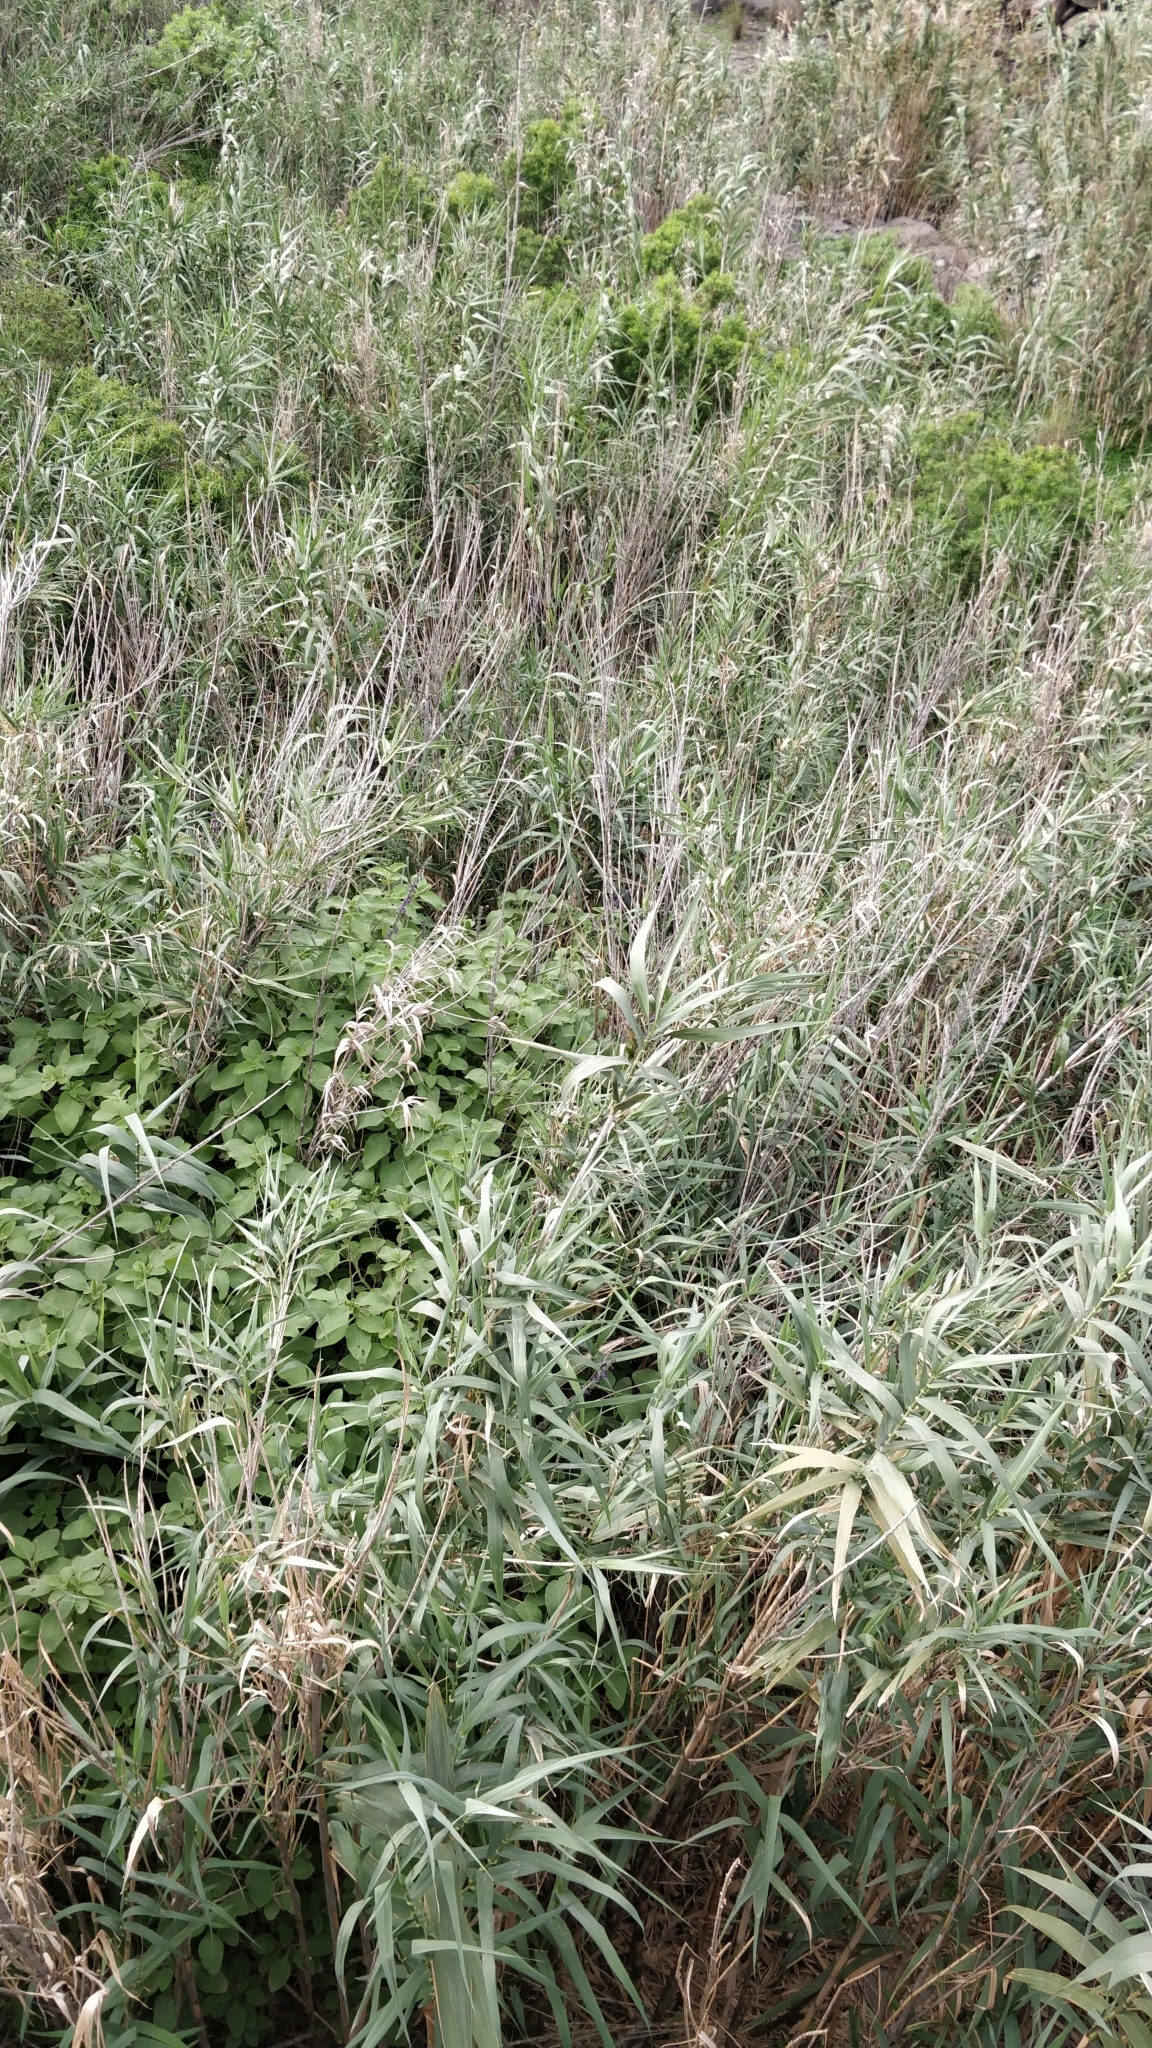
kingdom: Plantae
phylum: Tracheophyta
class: Liliopsida
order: Poales
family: Poaceae
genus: Arundo
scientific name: Arundo donax
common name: Giant reed
